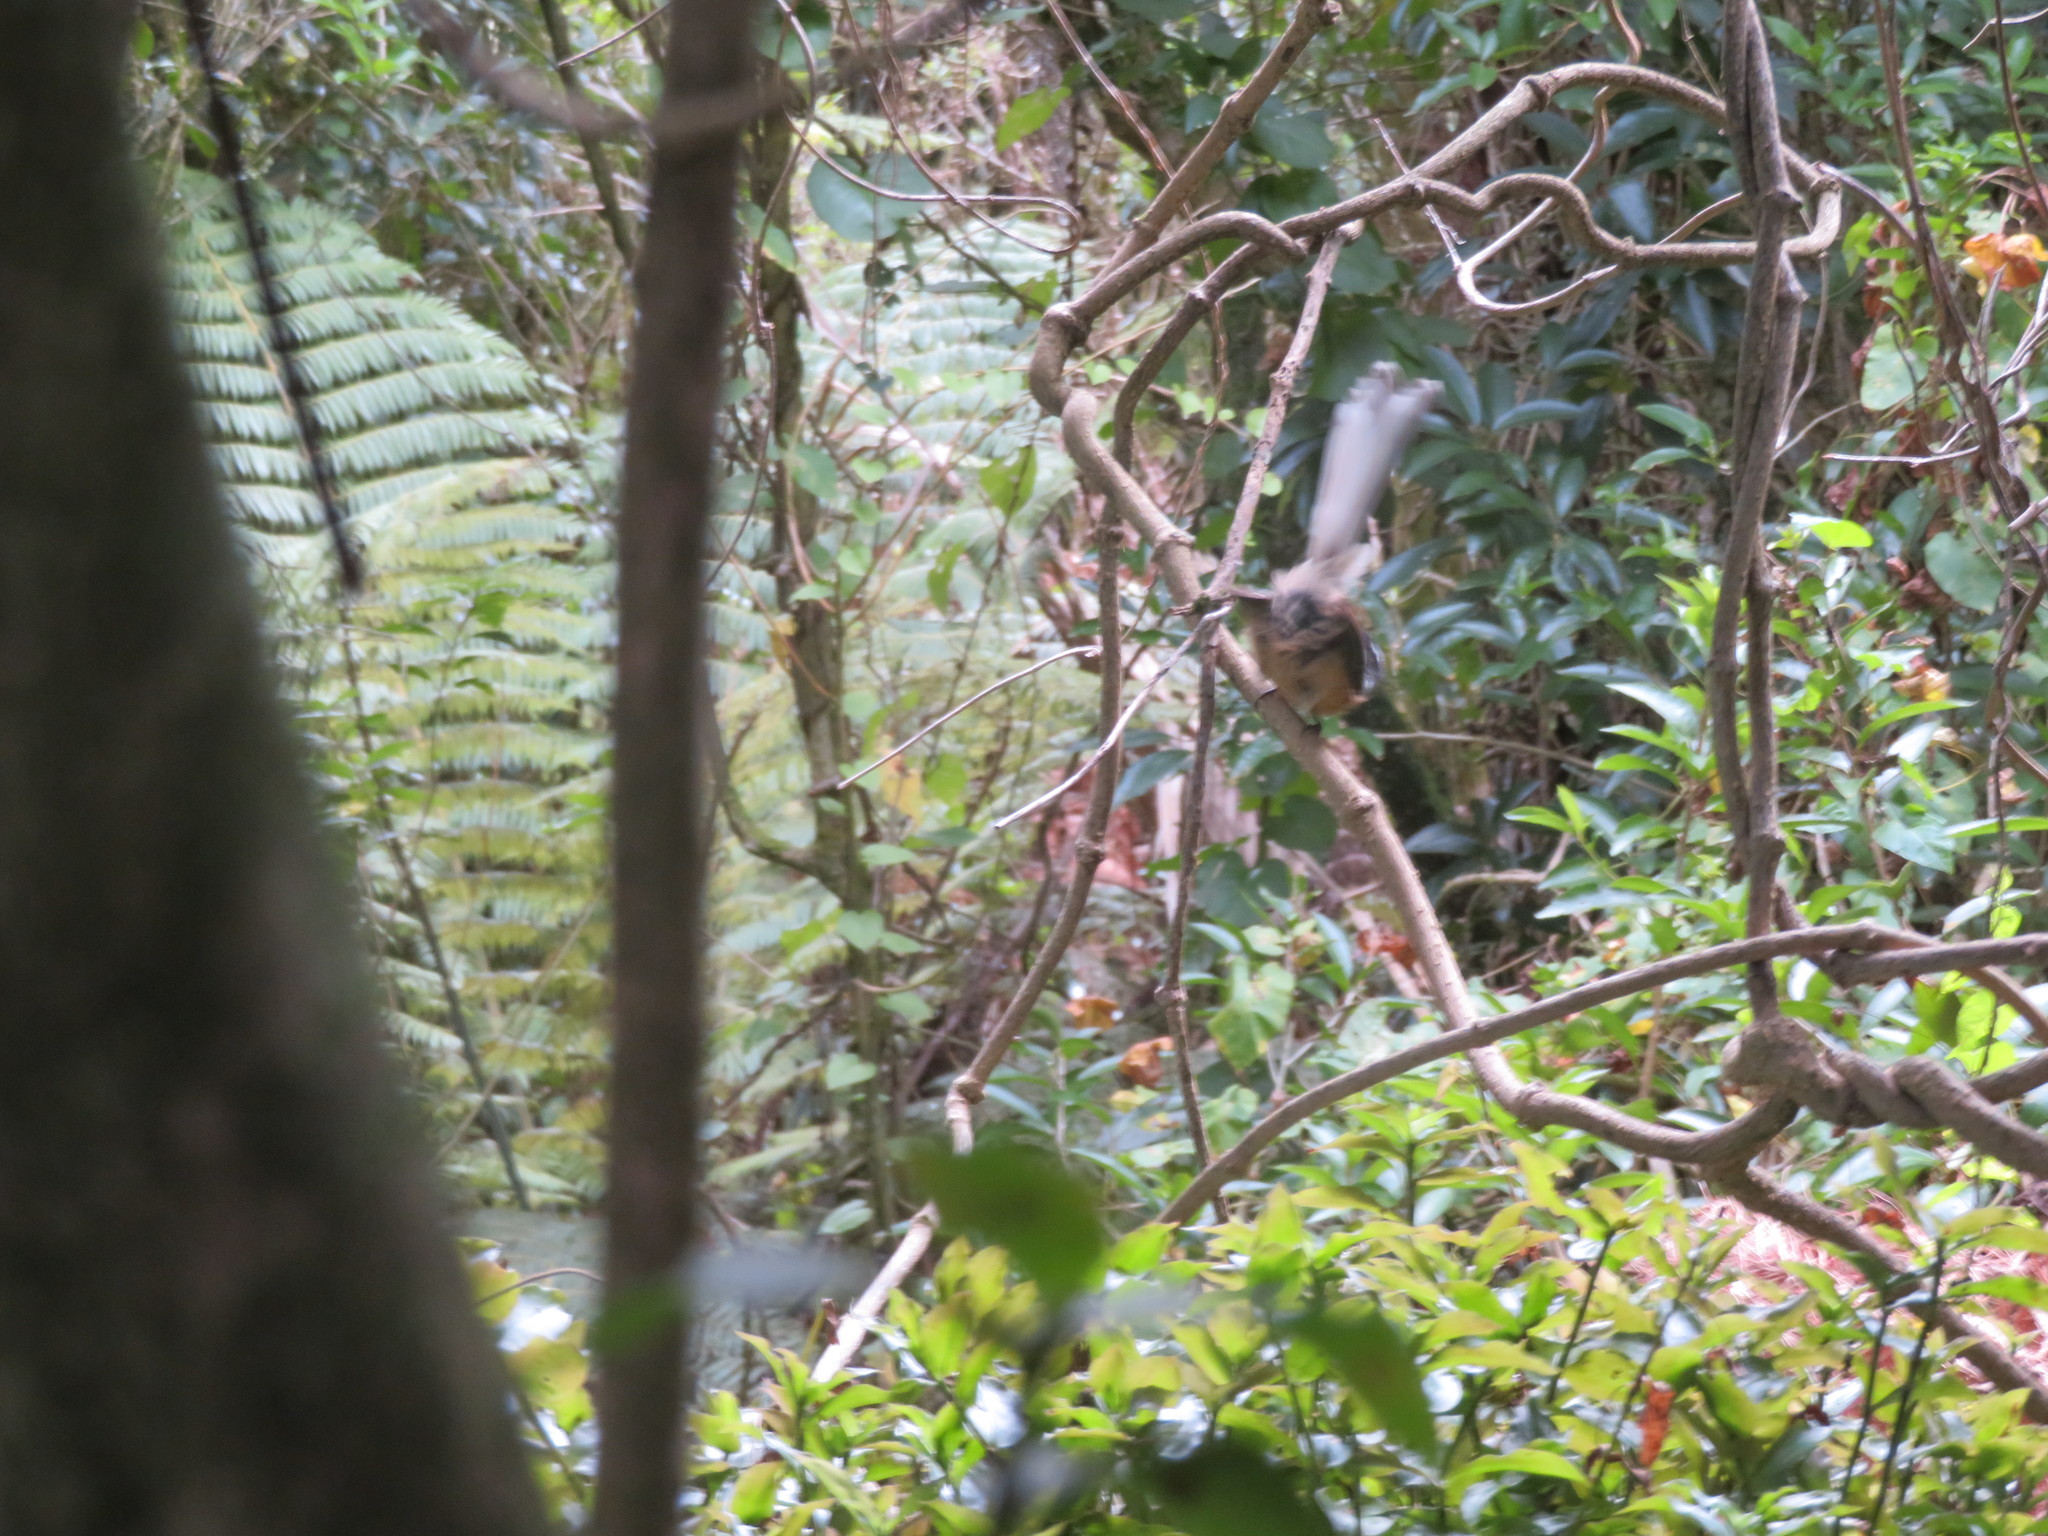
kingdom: Animalia
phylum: Chordata
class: Aves
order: Passeriformes
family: Rhipiduridae
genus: Rhipidura
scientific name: Rhipidura fuliginosa
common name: New zealand fantail
